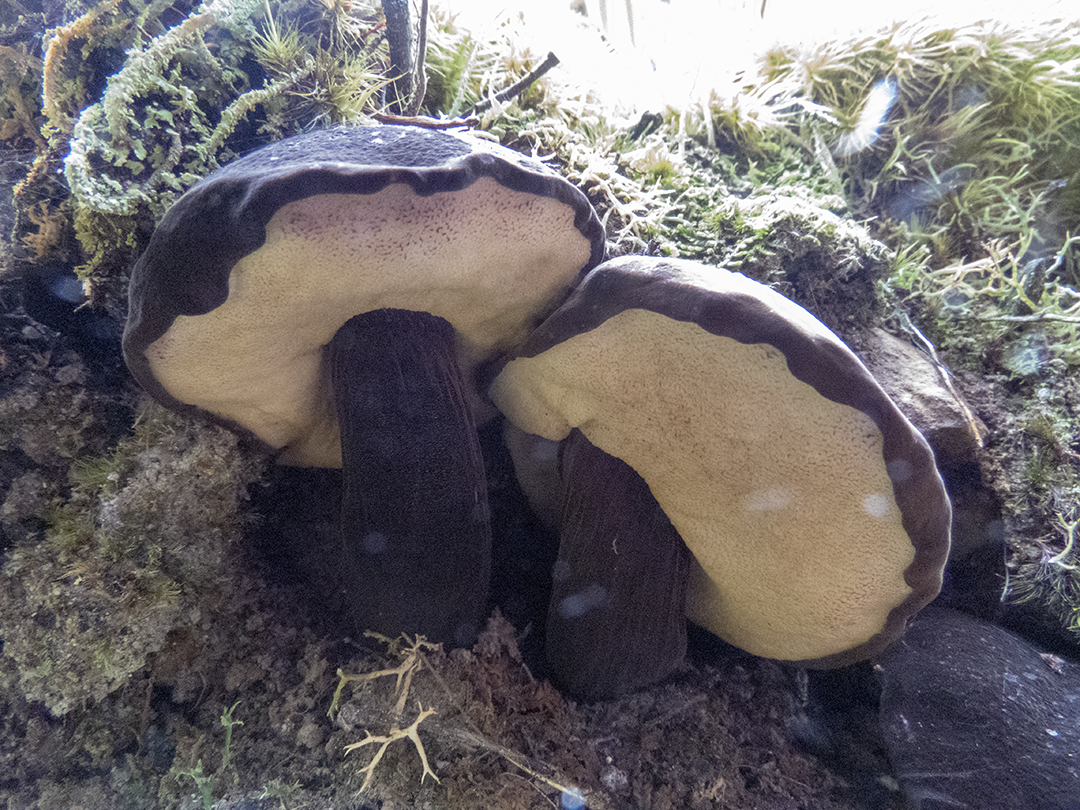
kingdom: Fungi
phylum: Basidiomycota
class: Agaricomycetes
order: Boletales
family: Boletaceae
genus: Porphyrellus
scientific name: Porphyrellus formosus
